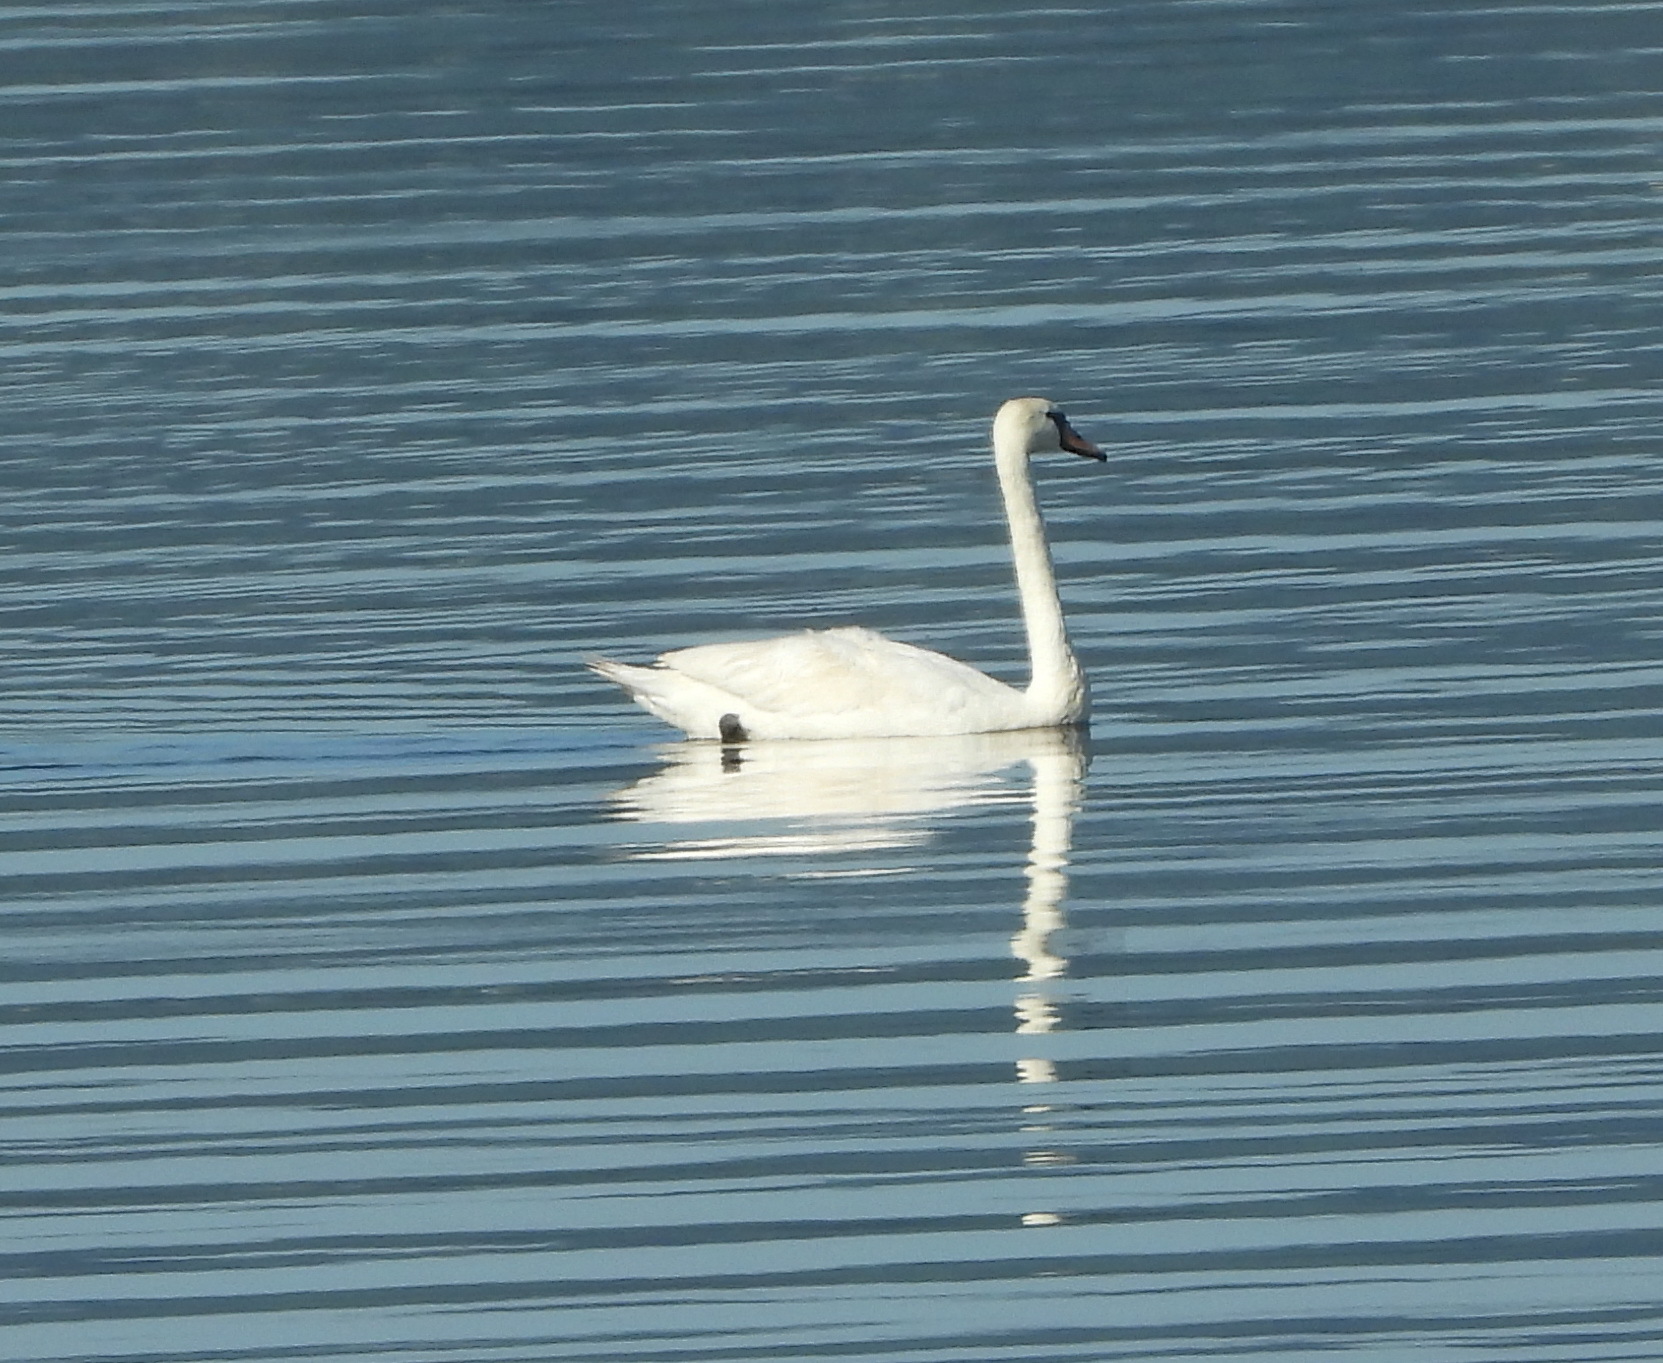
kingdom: Animalia
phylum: Chordata
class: Aves
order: Anseriformes
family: Anatidae
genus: Cygnus
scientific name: Cygnus olor
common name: Mute swan
